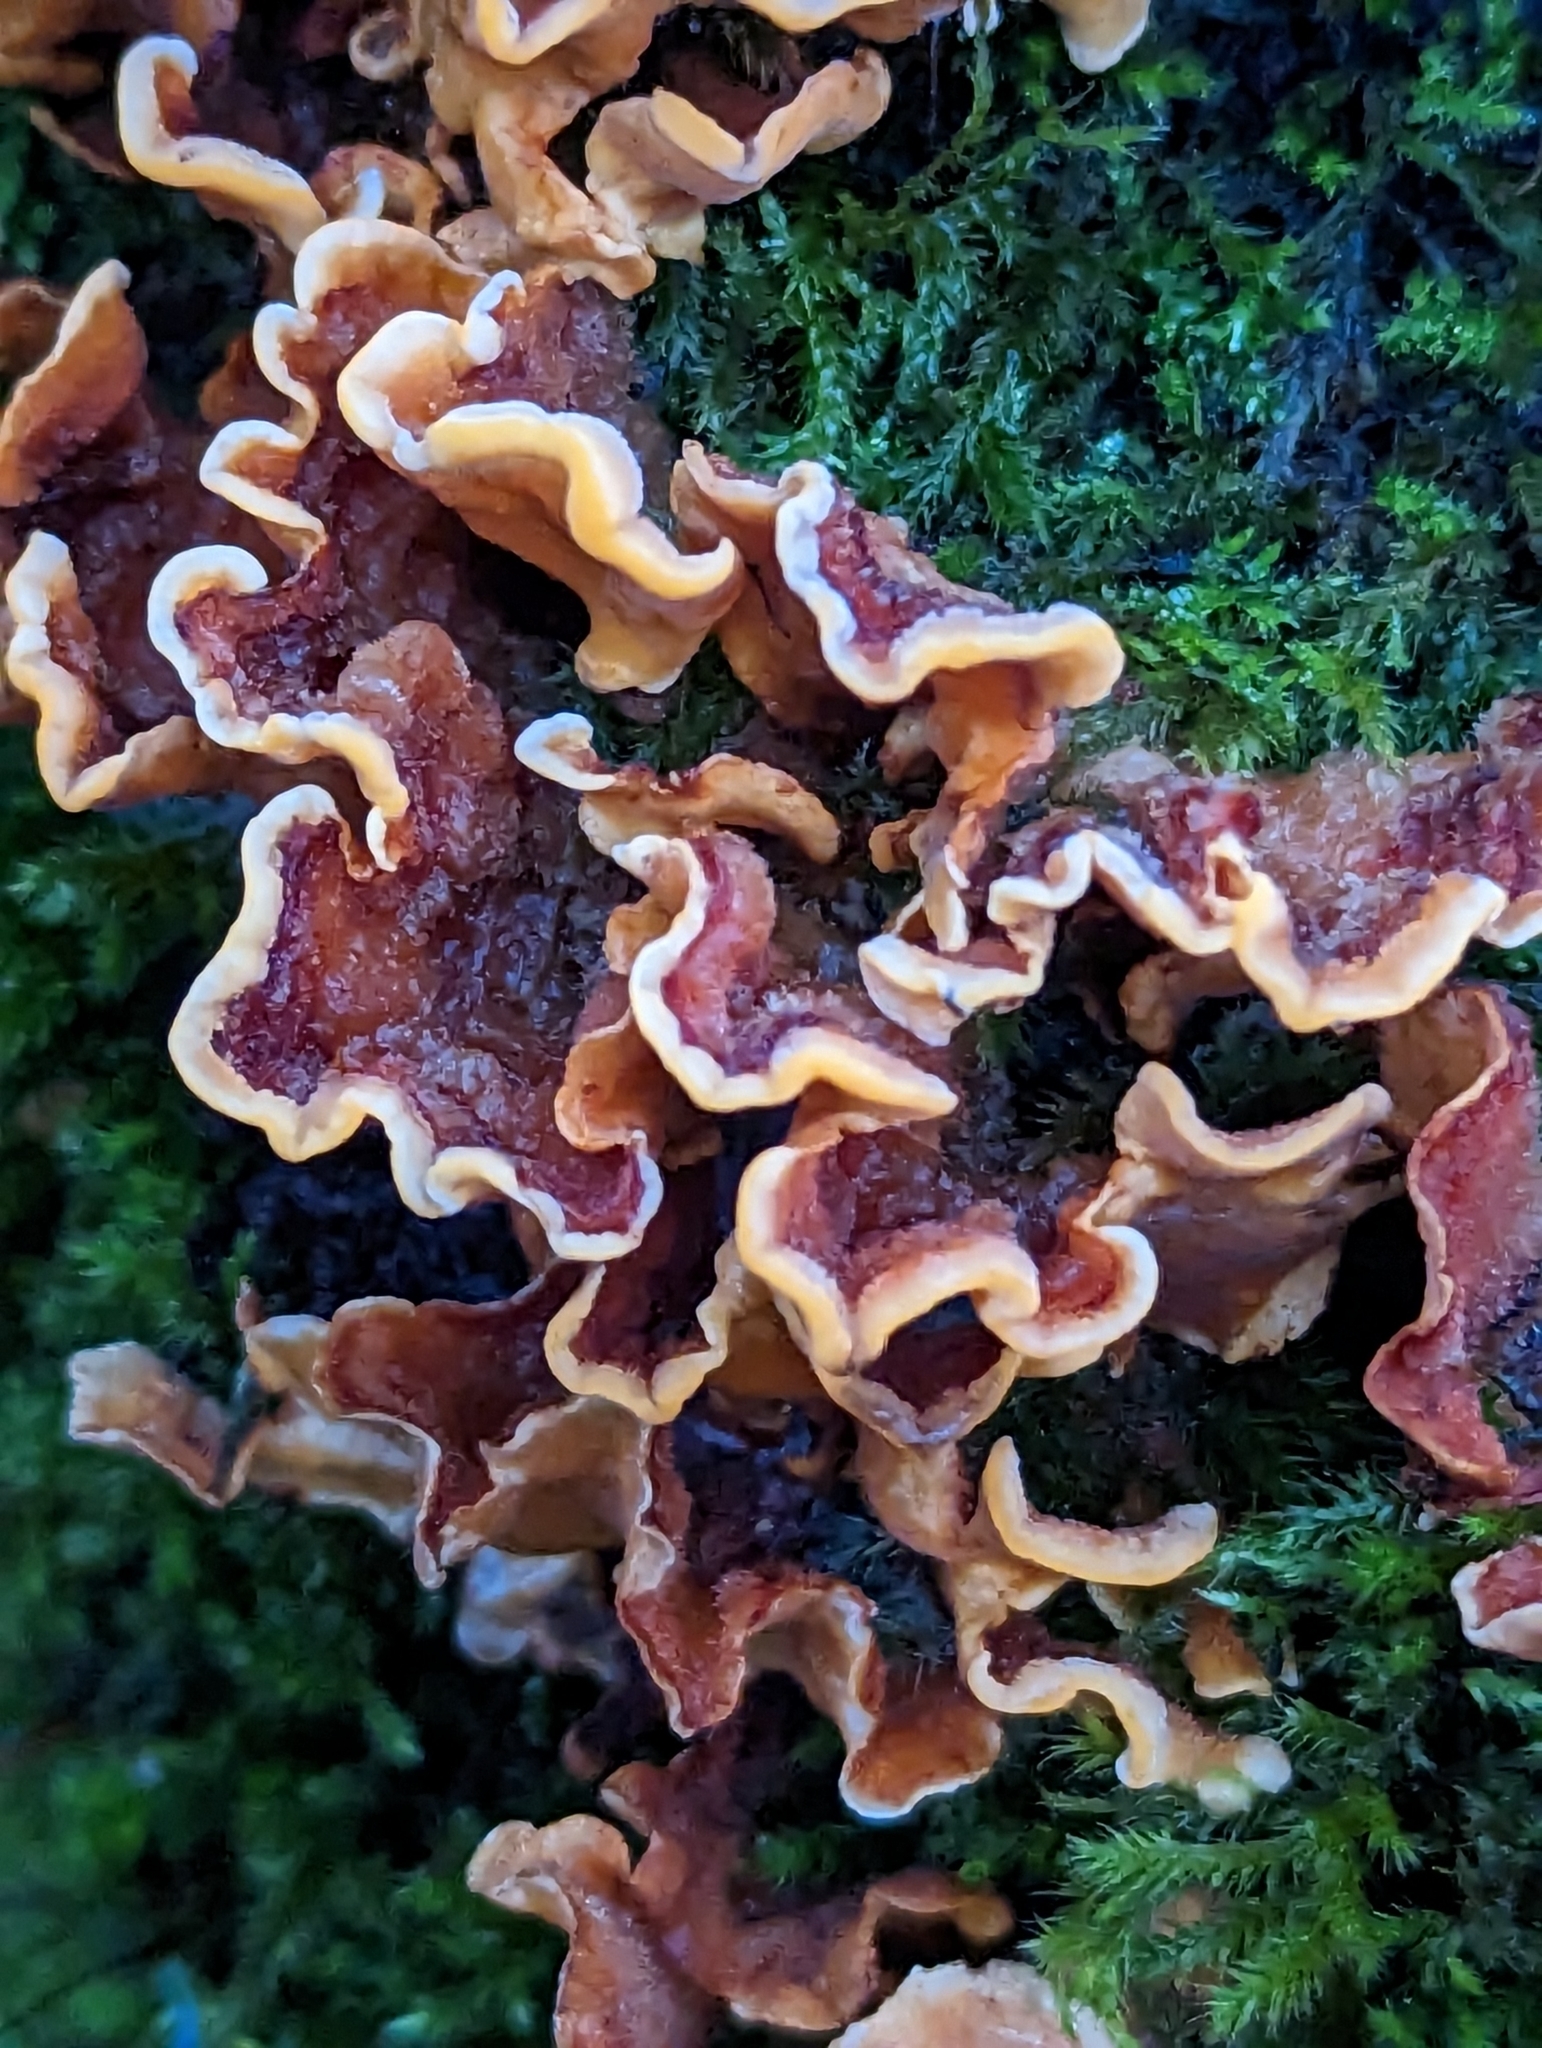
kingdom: Fungi
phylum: Basidiomycota
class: Agaricomycetes
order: Russulales
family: Stereaceae
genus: Stereum
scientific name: Stereum hirsutum
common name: Hairy curtain crust
